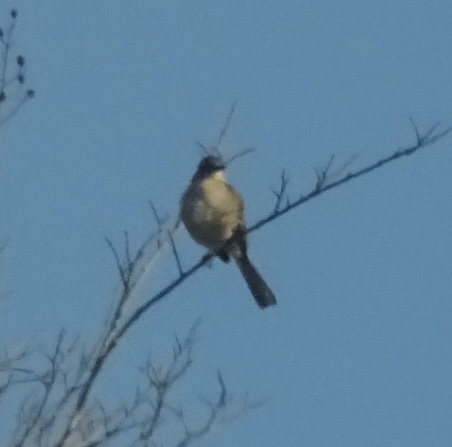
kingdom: Animalia
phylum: Chordata
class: Aves
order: Passeriformes
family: Mimidae
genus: Mimus
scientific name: Mimus polyglottos
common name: Northern mockingbird
